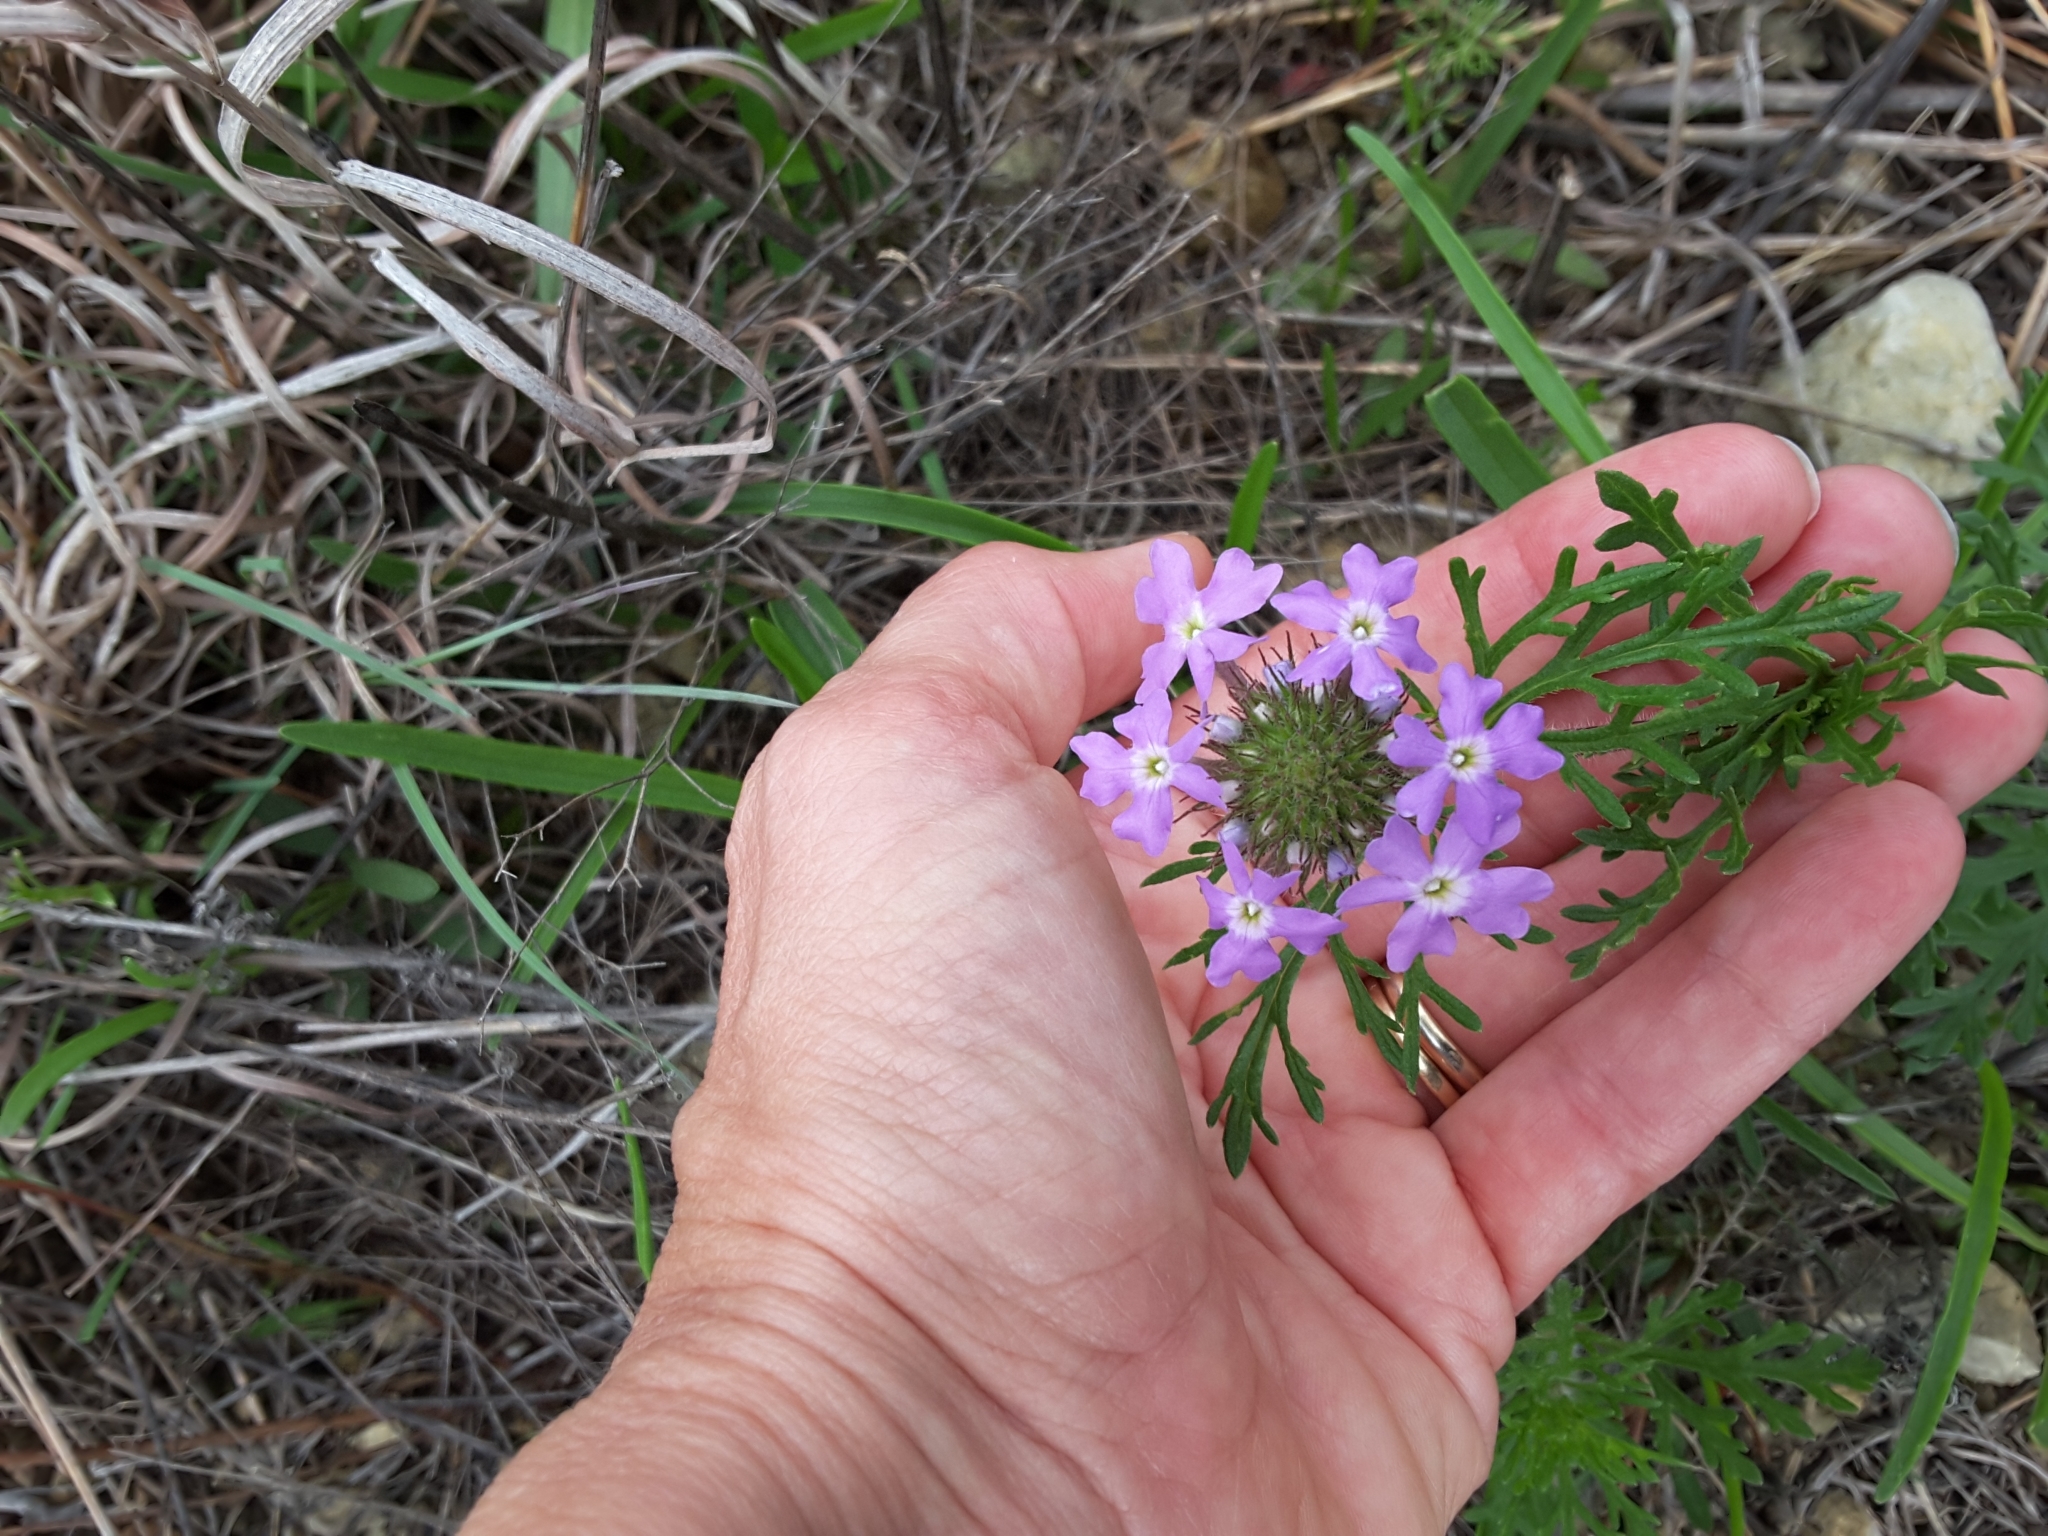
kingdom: Plantae
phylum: Tracheophyta
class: Magnoliopsida
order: Lamiales
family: Verbenaceae
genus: Verbena
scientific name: Verbena bipinnatifida
